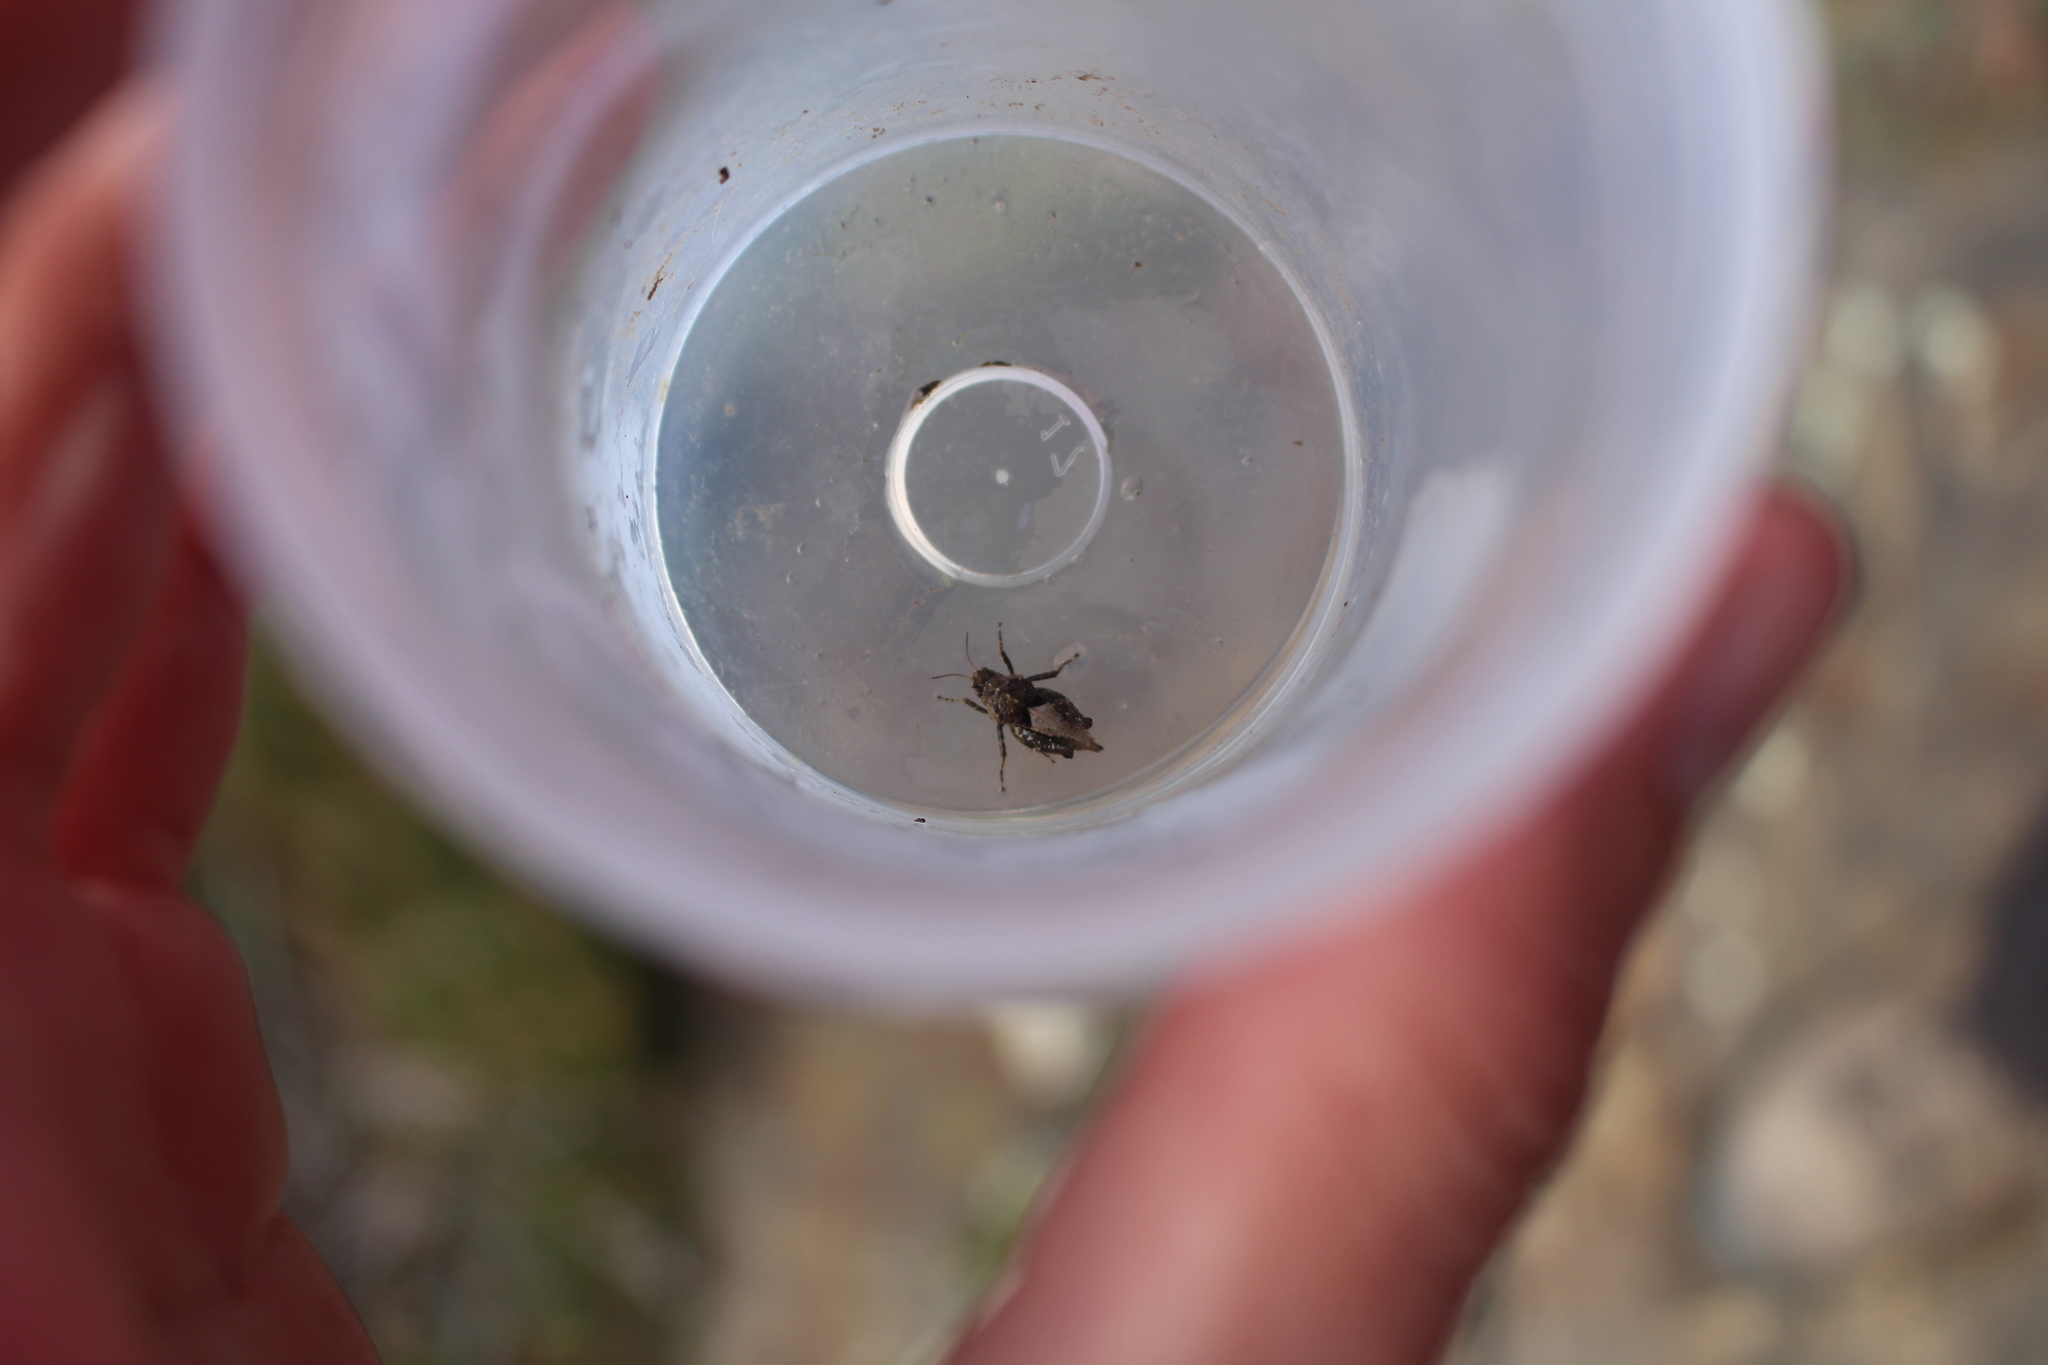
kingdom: Animalia
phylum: Arthropoda
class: Insecta
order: Orthoptera
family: Tetrigidae
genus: Tetrix
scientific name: Tetrix depressa
